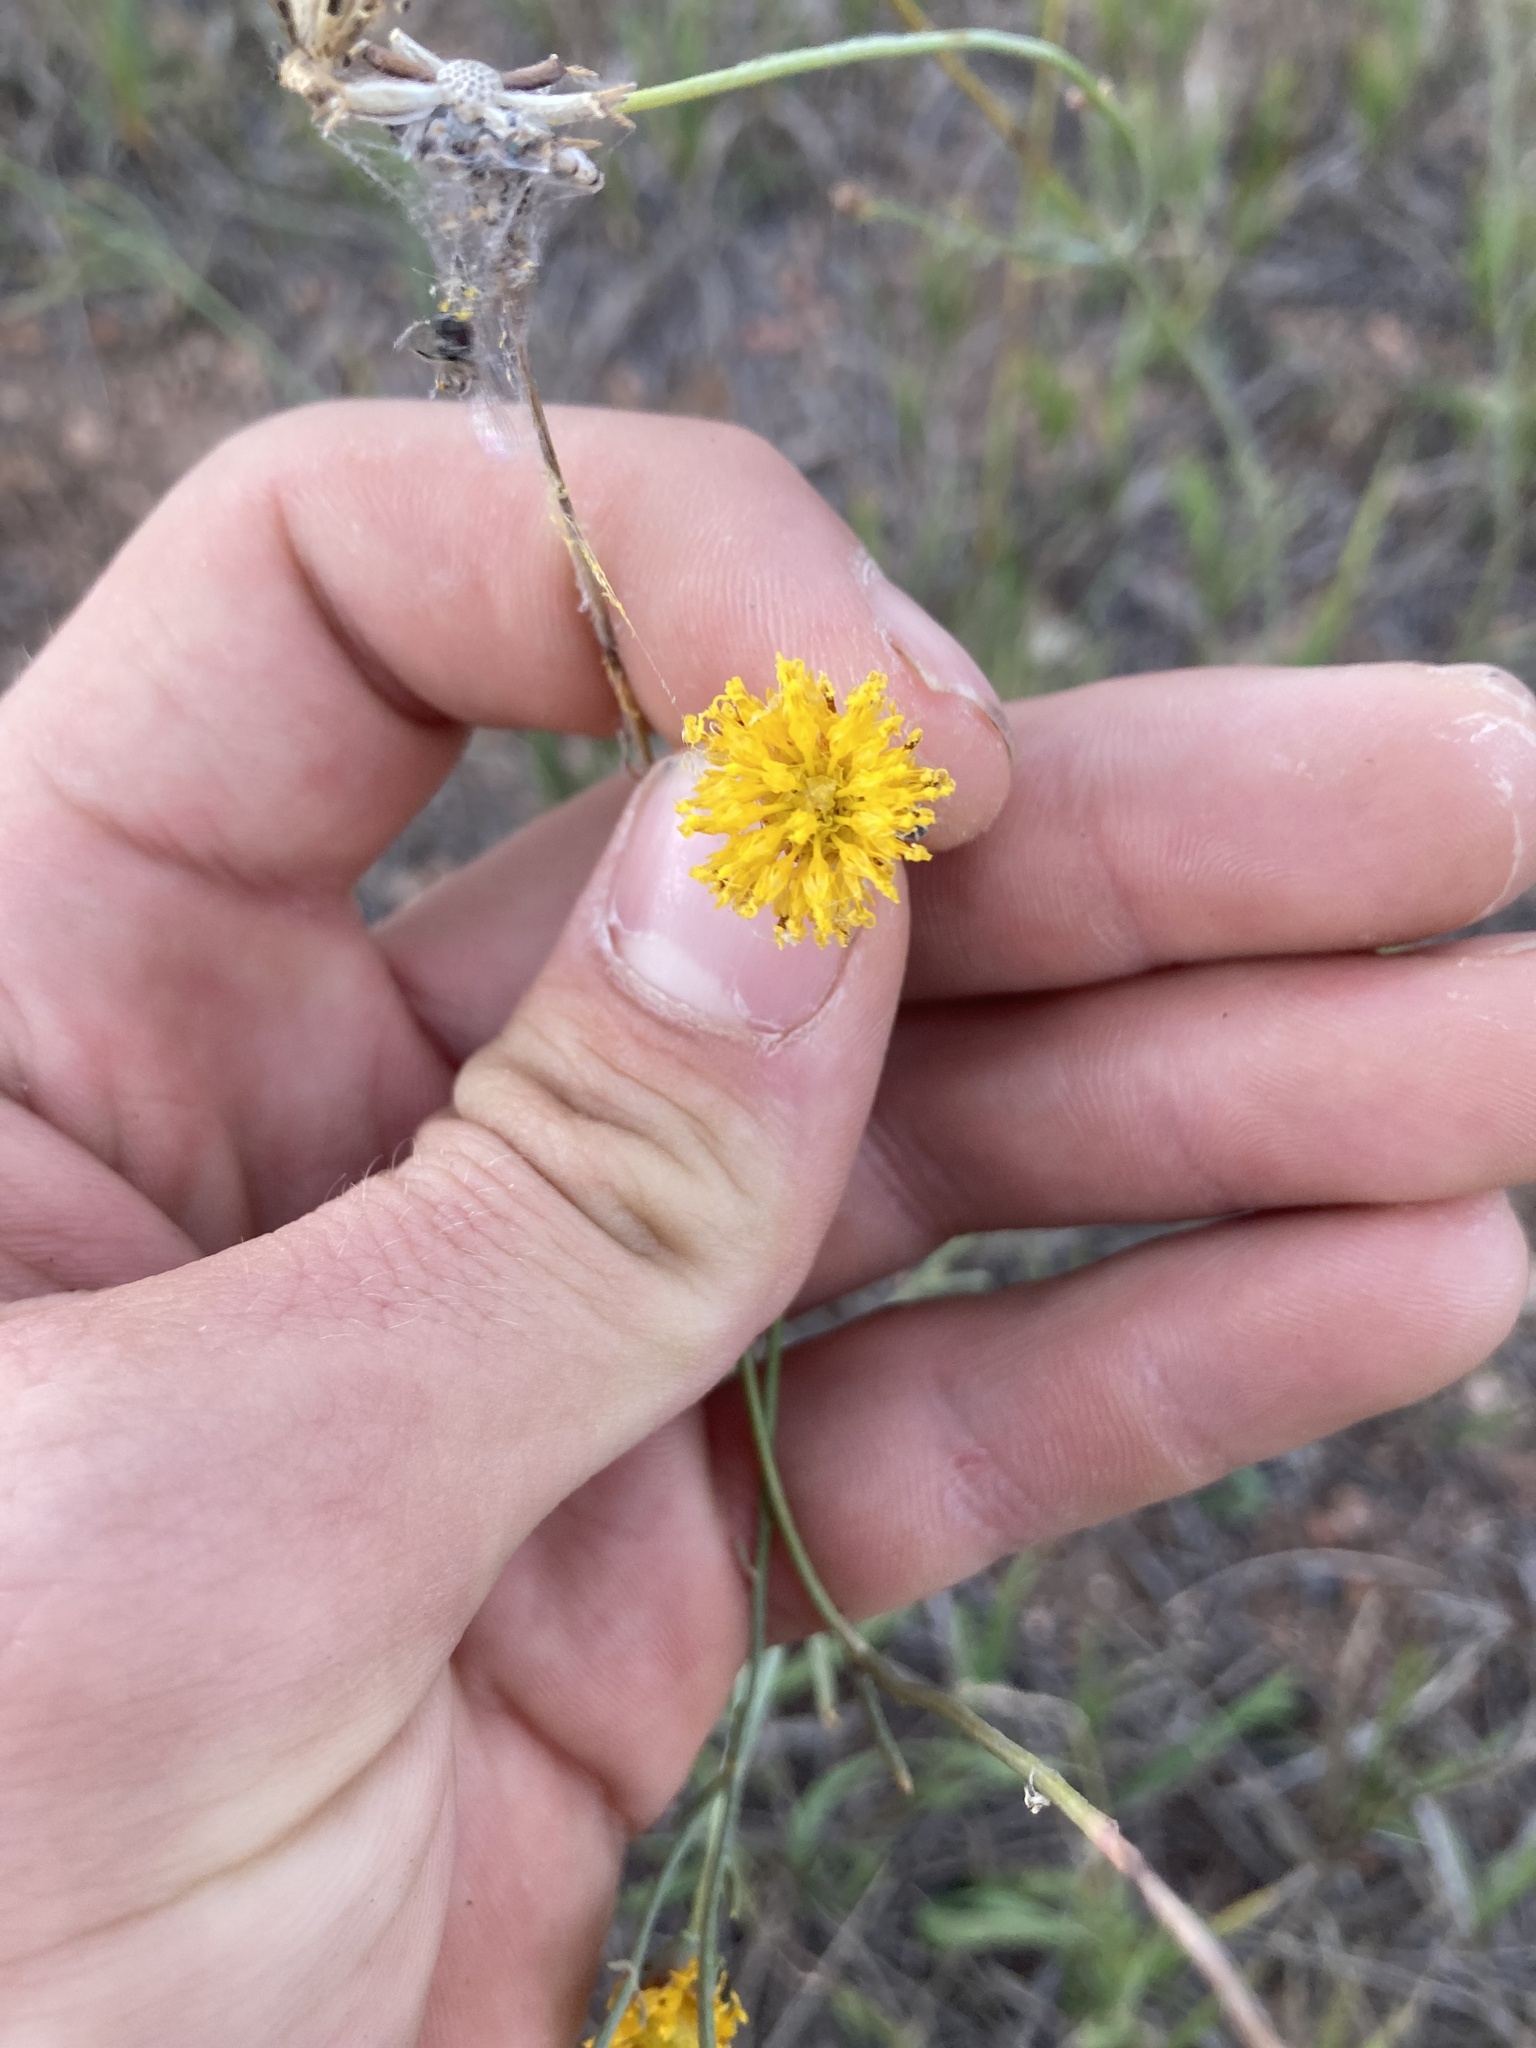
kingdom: Plantae
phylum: Tracheophyta
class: Magnoliopsida
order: Asterales
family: Asteraceae
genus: Thelesperma
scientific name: Thelesperma megapotamicum
